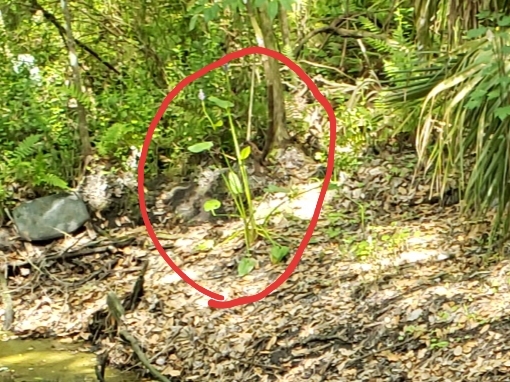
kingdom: Plantae
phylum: Tracheophyta
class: Liliopsida
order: Commelinales
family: Pontederiaceae
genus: Pontederia
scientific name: Pontederia cordata
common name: Pickerelweed
